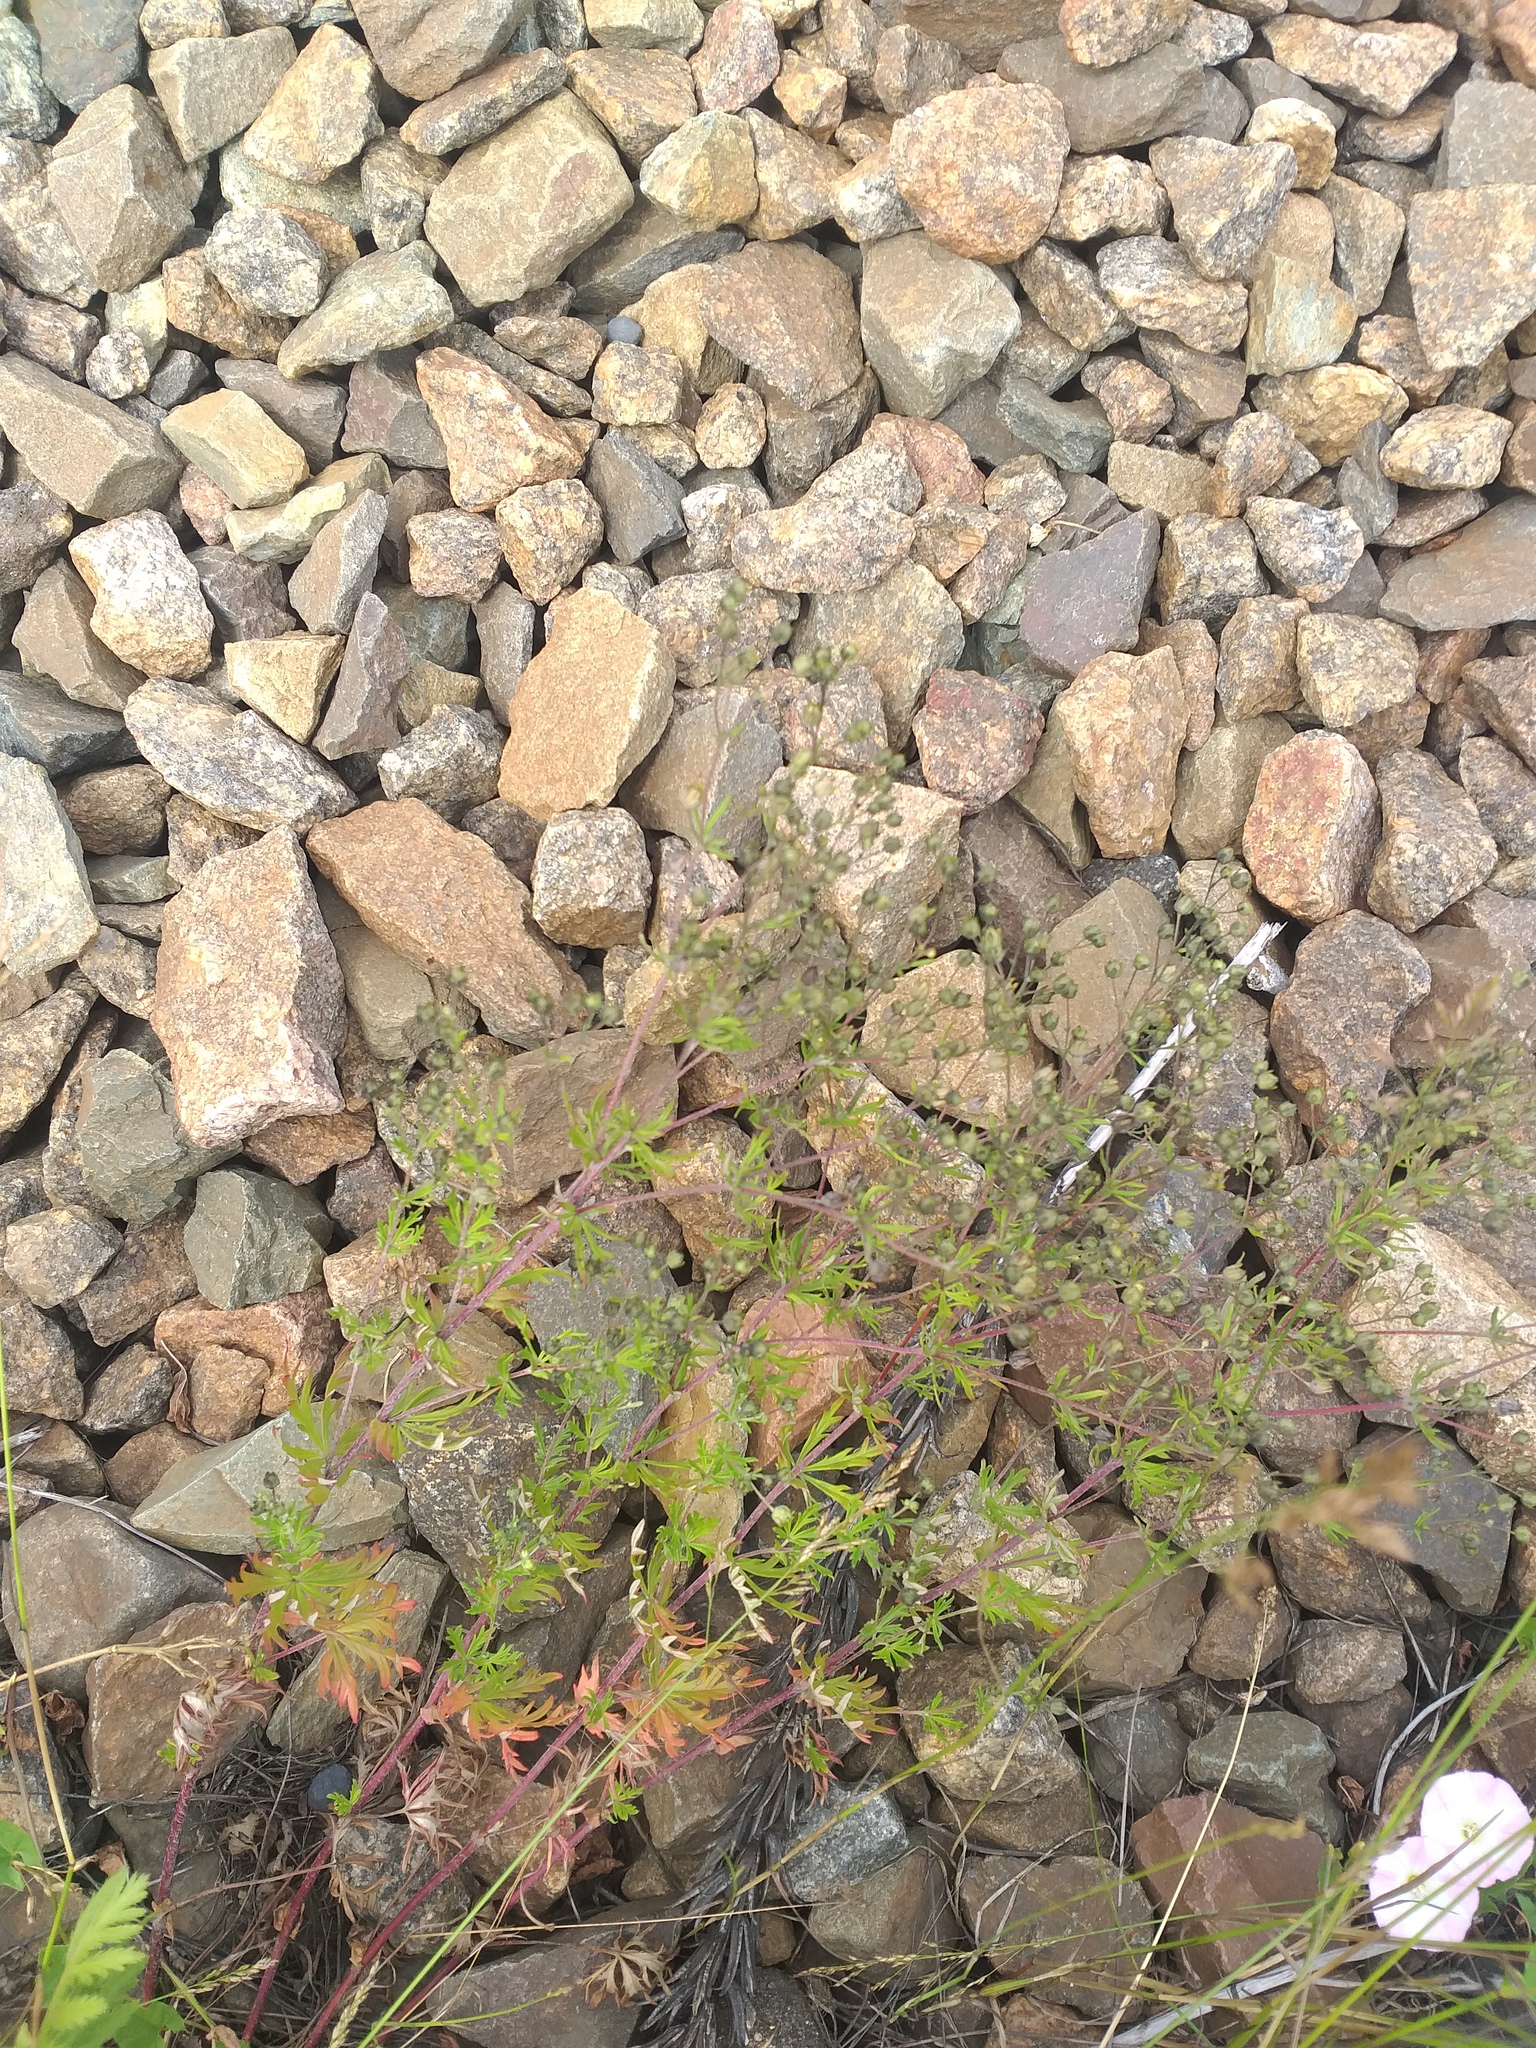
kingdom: Plantae
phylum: Tracheophyta
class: Magnoliopsida
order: Rosales
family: Rosaceae
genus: Potentilla
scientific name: Potentilla argentea
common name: Hoary cinquefoil
